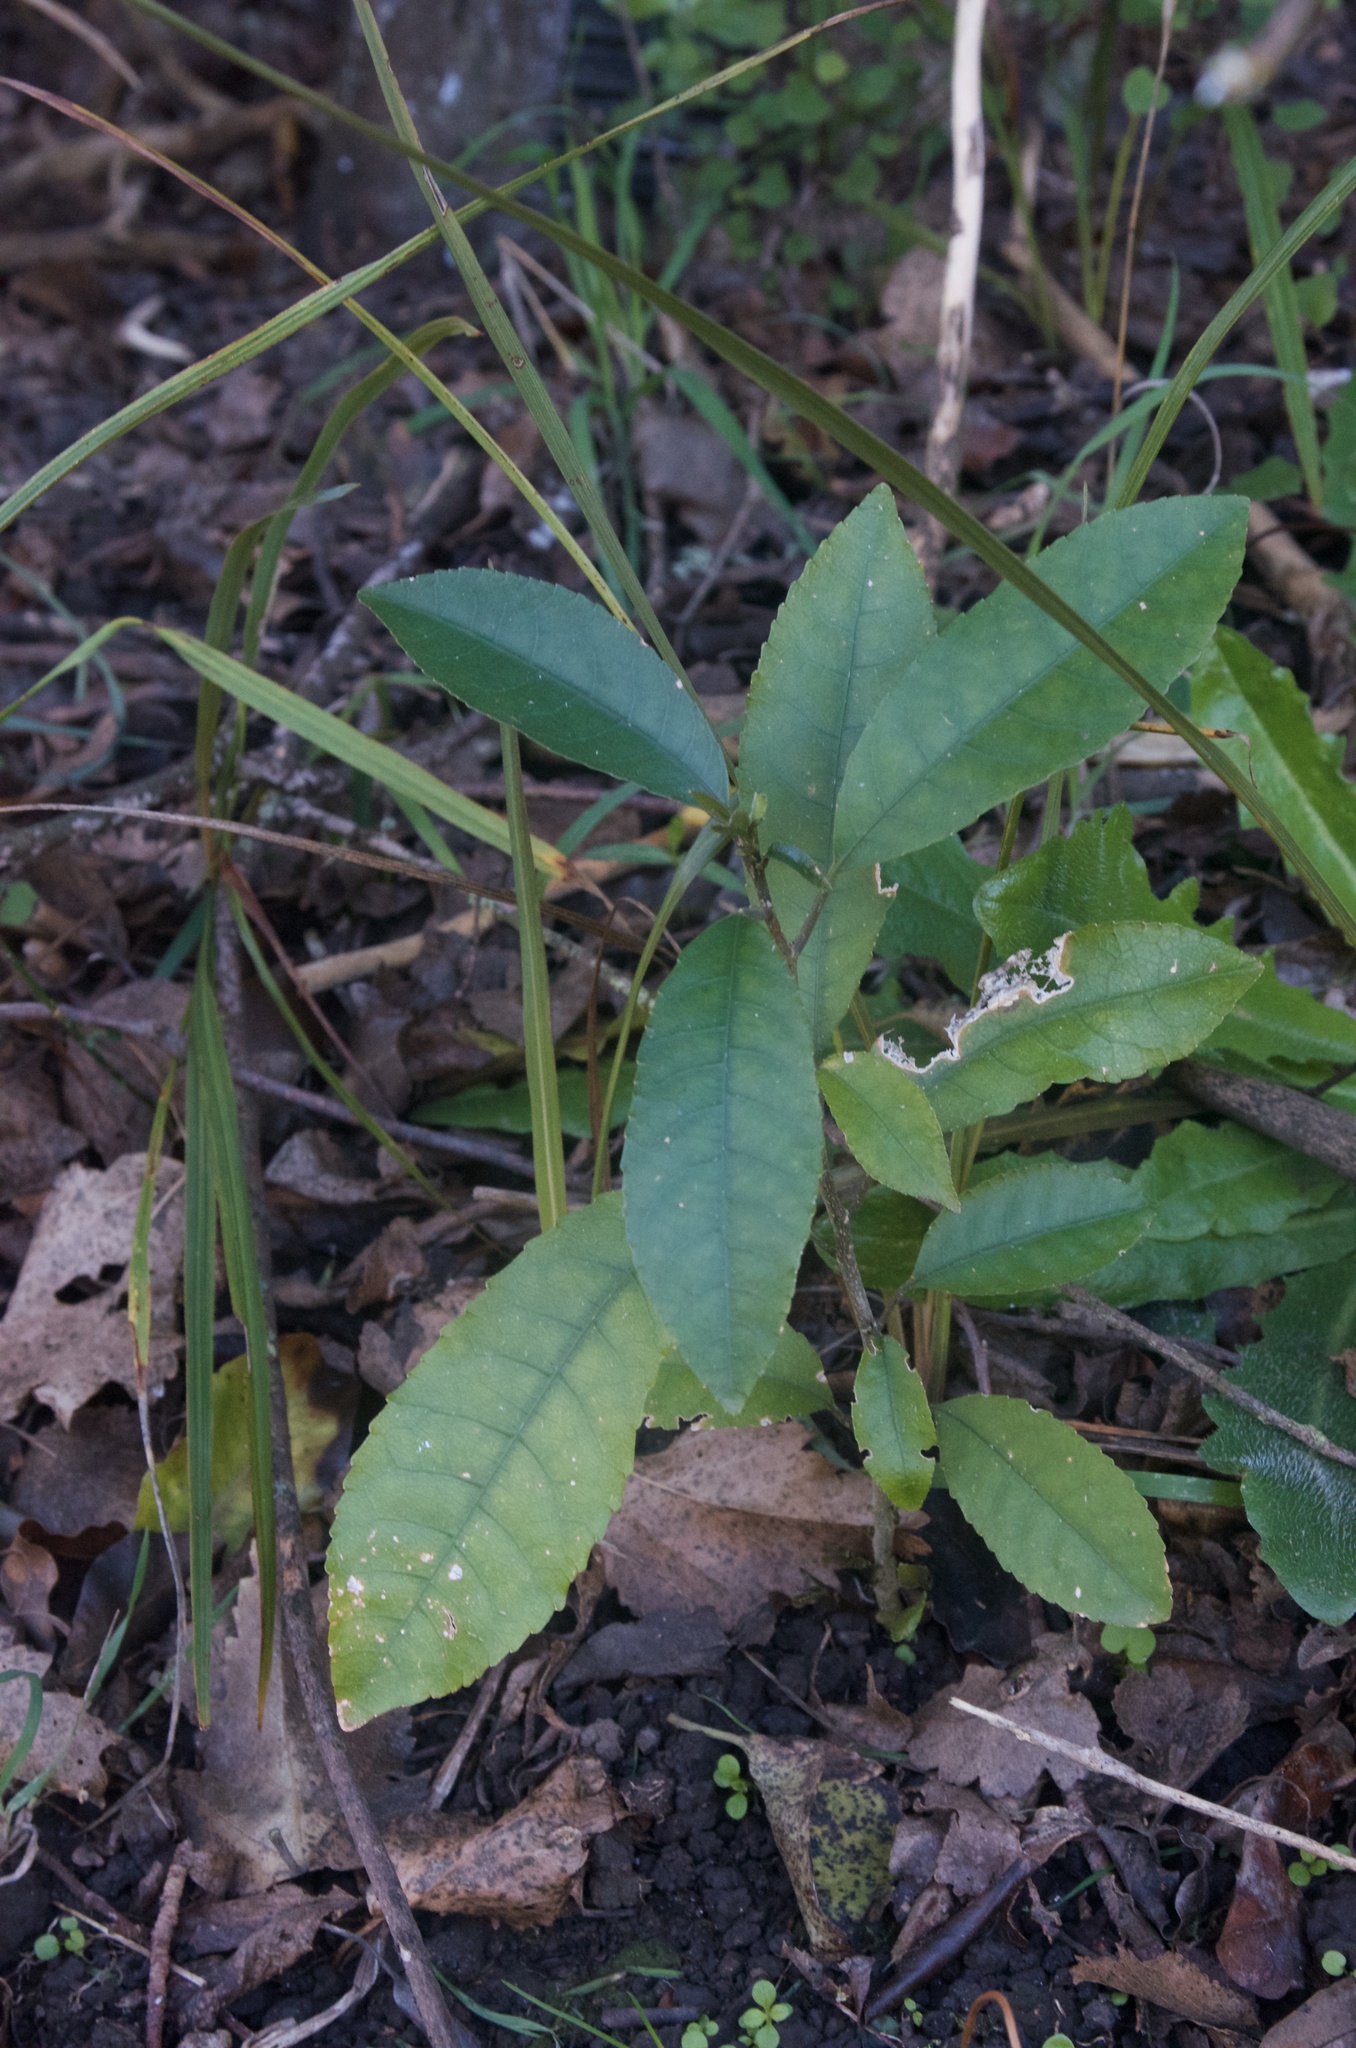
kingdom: Plantae
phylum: Tracheophyta
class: Magnoliopsida
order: Malpighiales
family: Violaceae
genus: Melicytus
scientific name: Melicytus ramiflorus
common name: Mahoe
